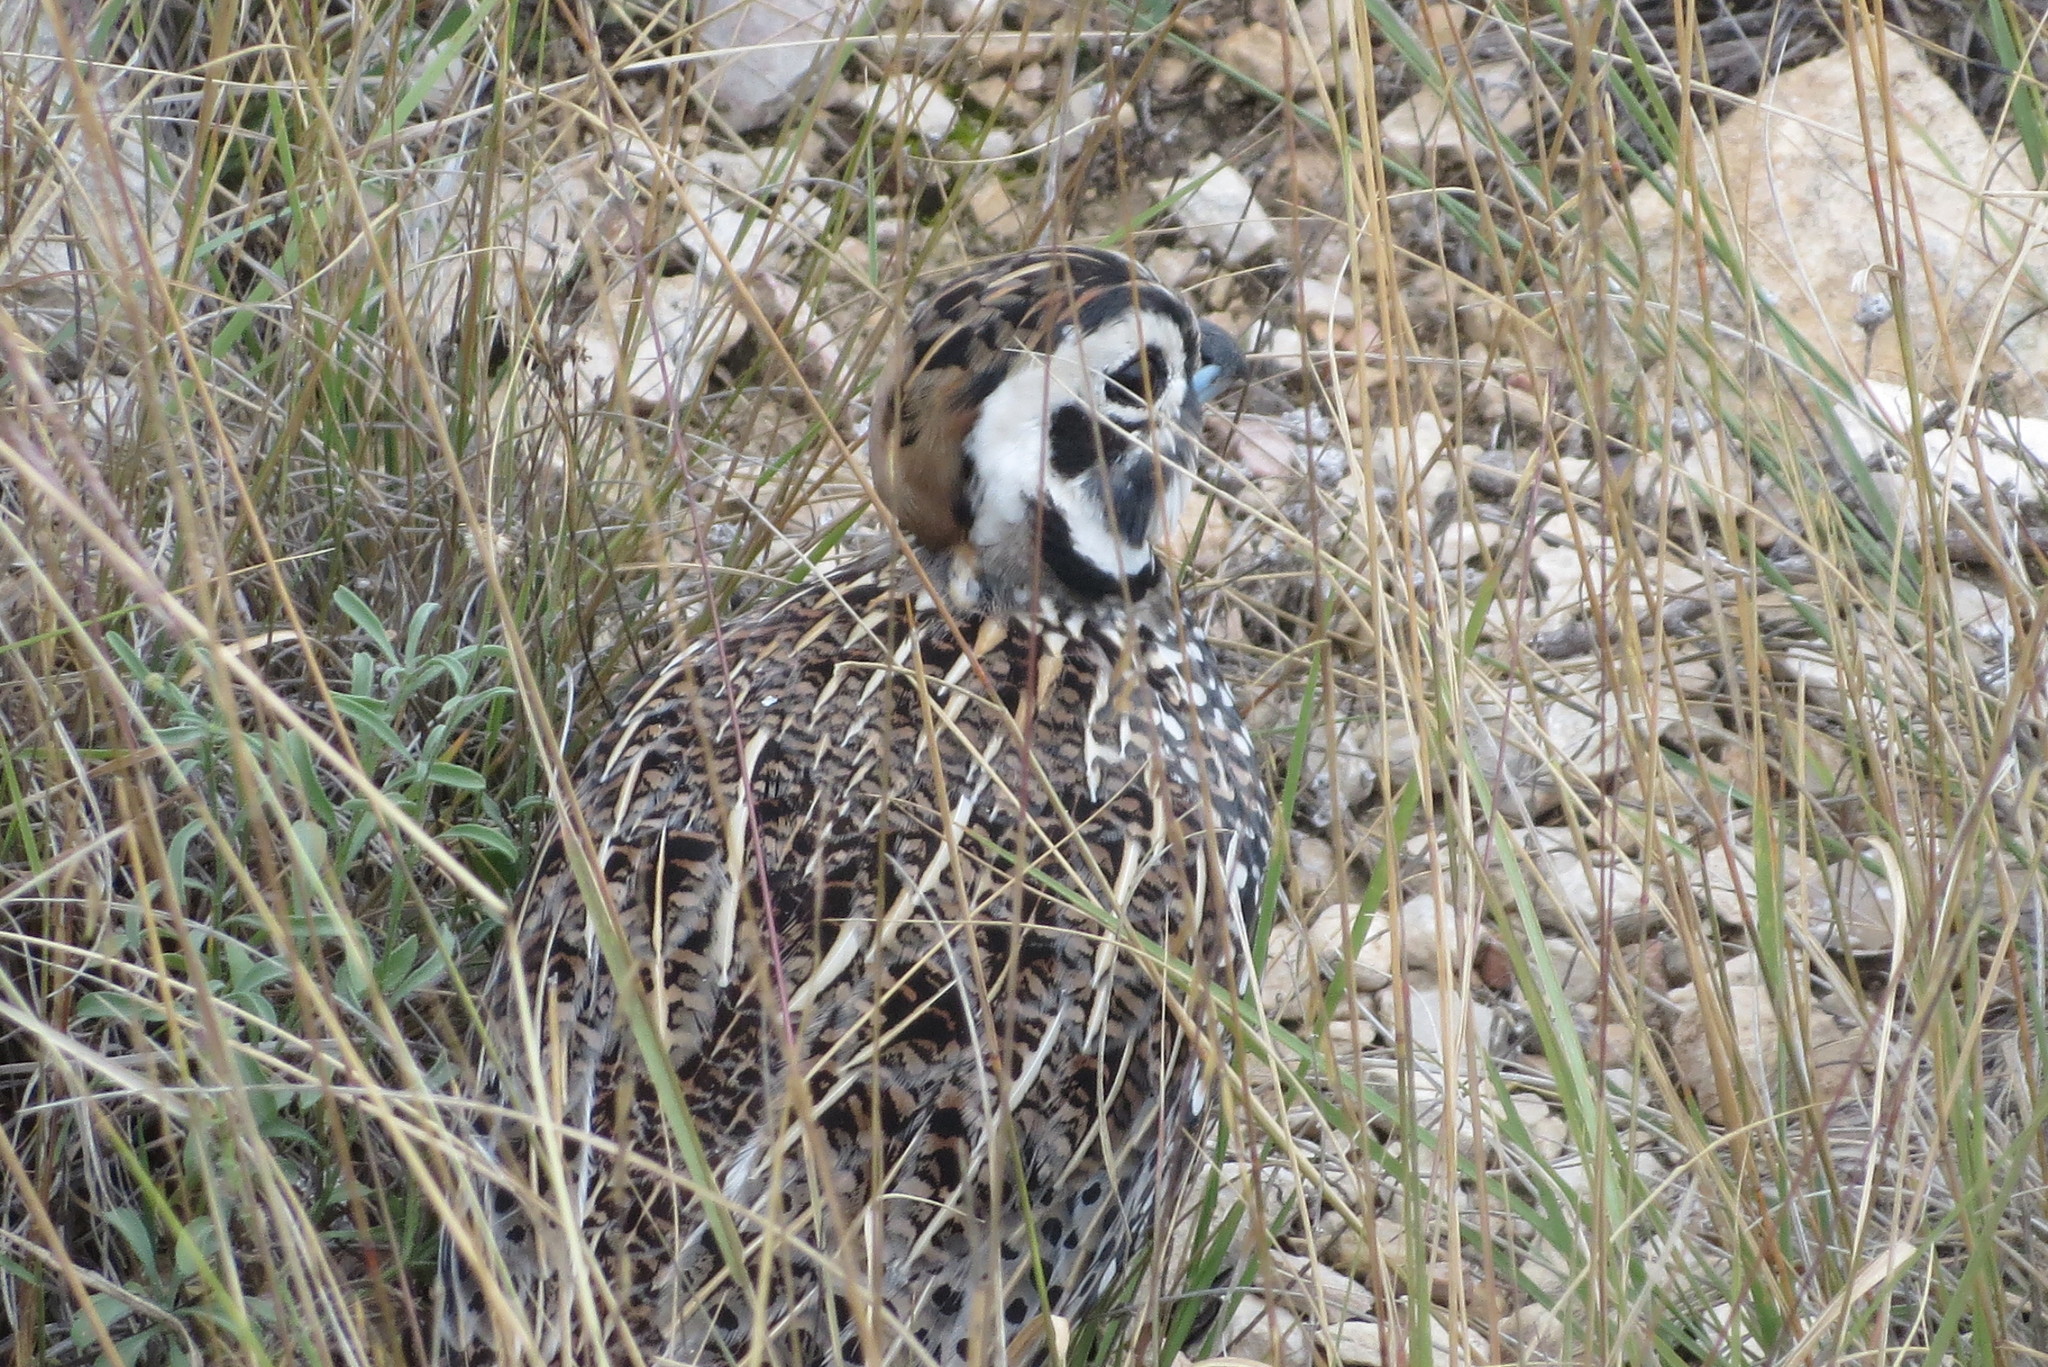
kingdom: Animalia
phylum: Chordata
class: Aves
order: Galliformes
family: Odontophoridae
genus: Cyrtonyx
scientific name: Cyrtonyx montezumae
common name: Montezuma quail
